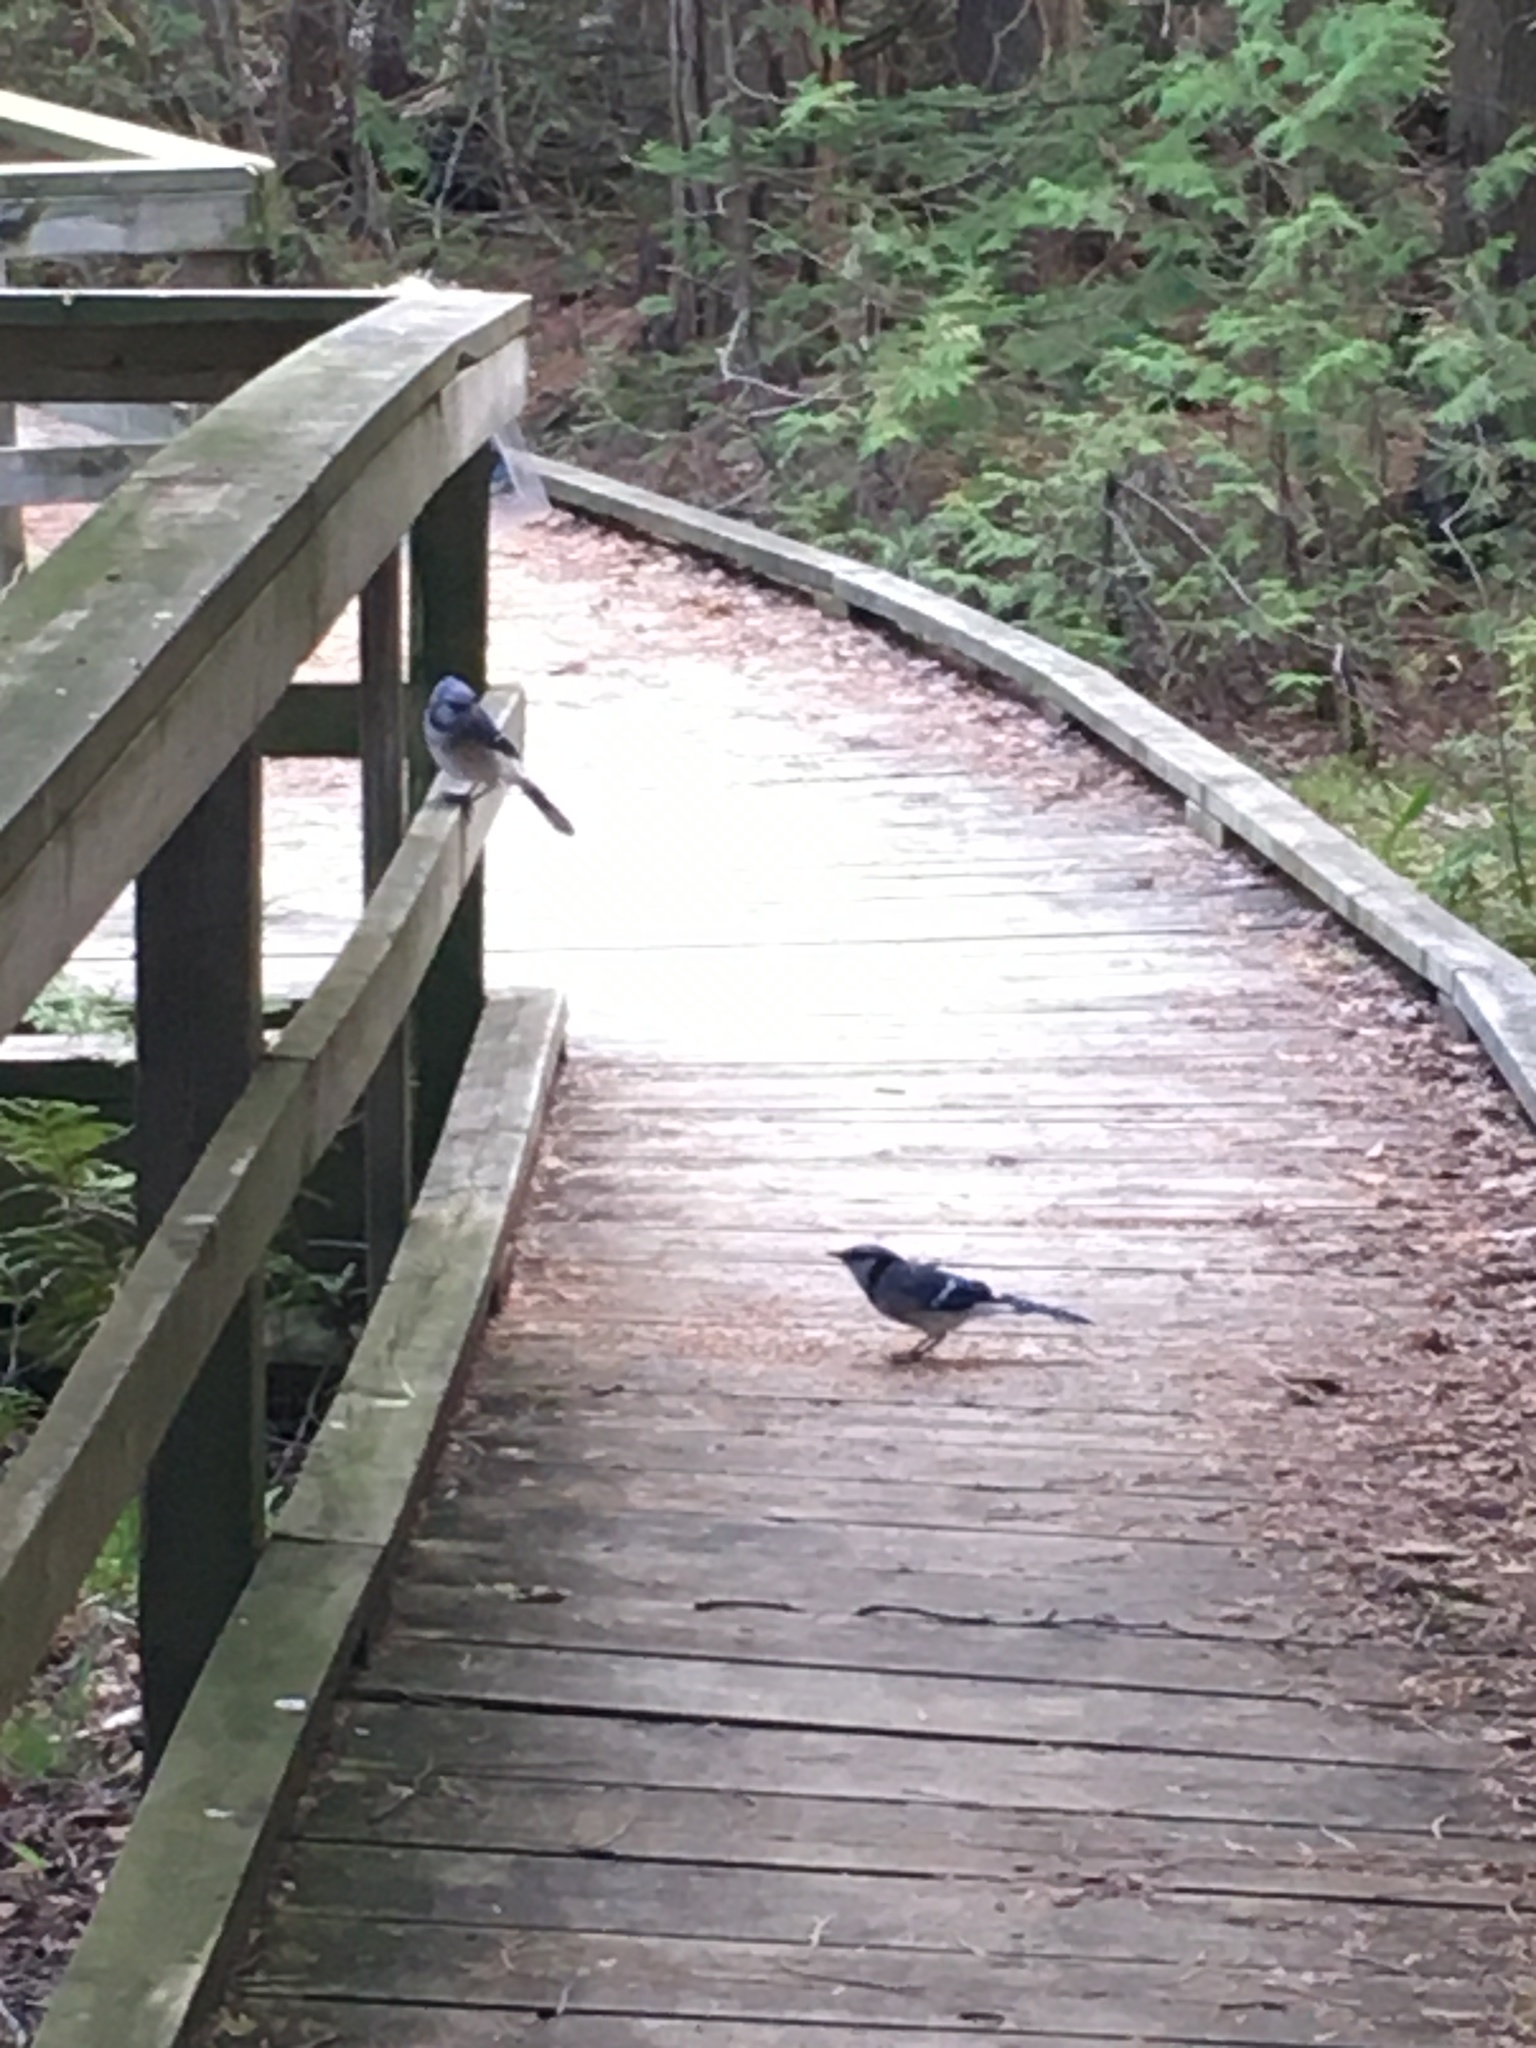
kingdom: Animalia
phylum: Chordata
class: Aves
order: Passeriformes
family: Corvidae
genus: Cyanocitta
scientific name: Cyanocitta cristata
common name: Blue jay
